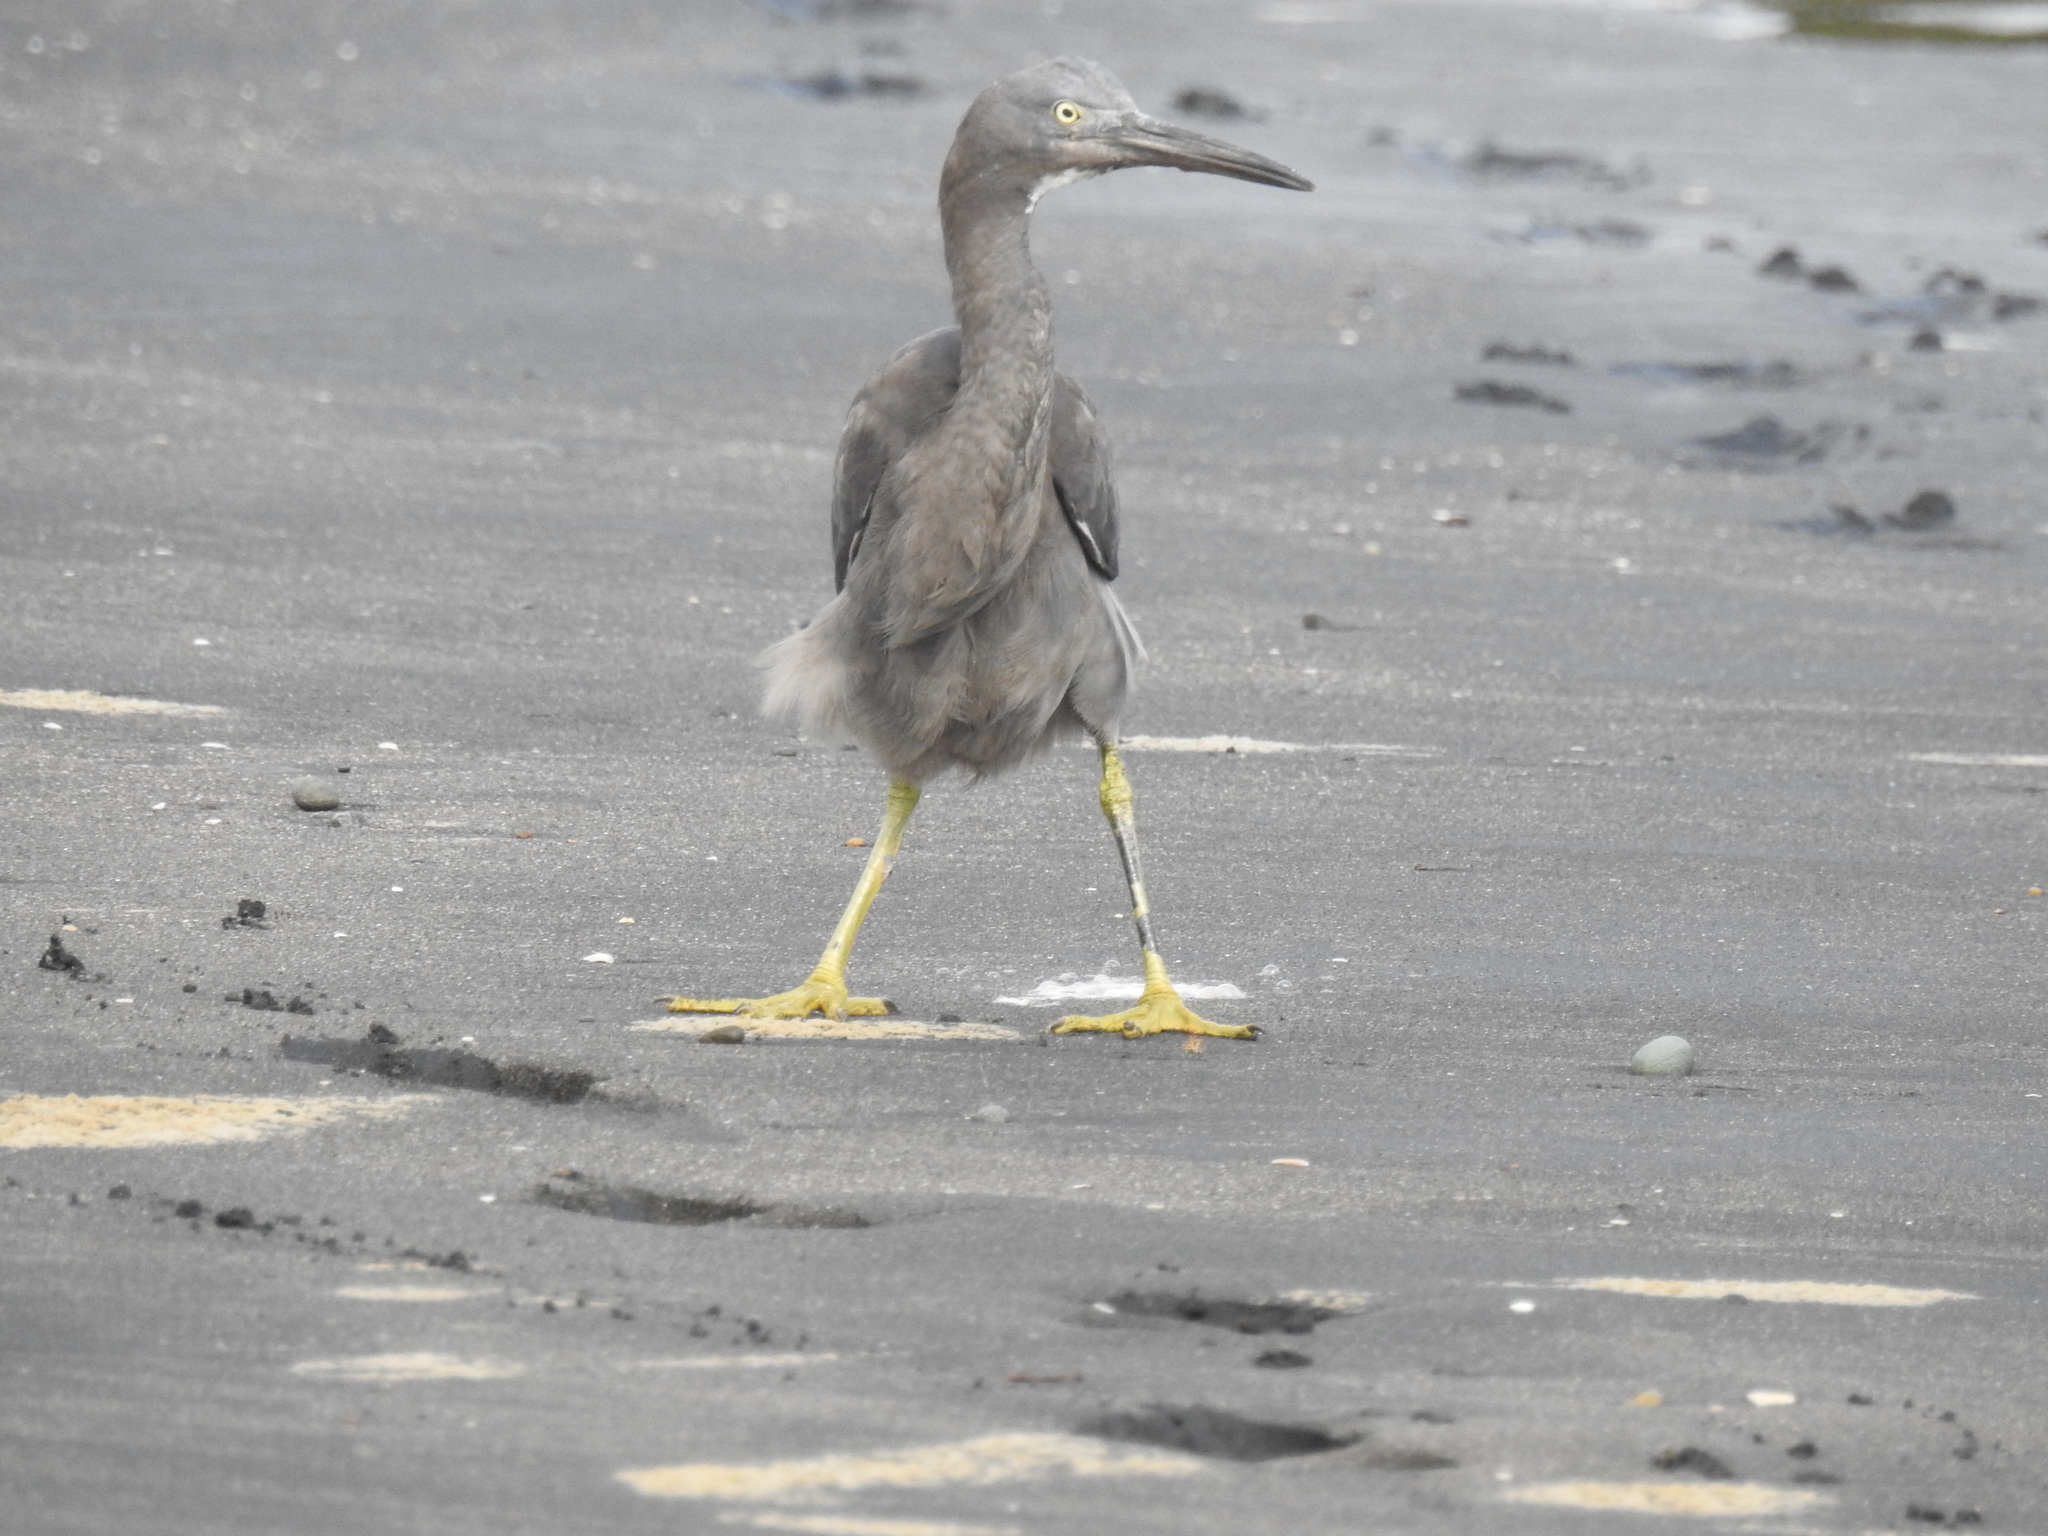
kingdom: Animalia
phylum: Chordata
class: Aves
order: Pelecaniformes
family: Ardeidae
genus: Egretta
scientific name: Egretta sacra
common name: Pacific reef heron
